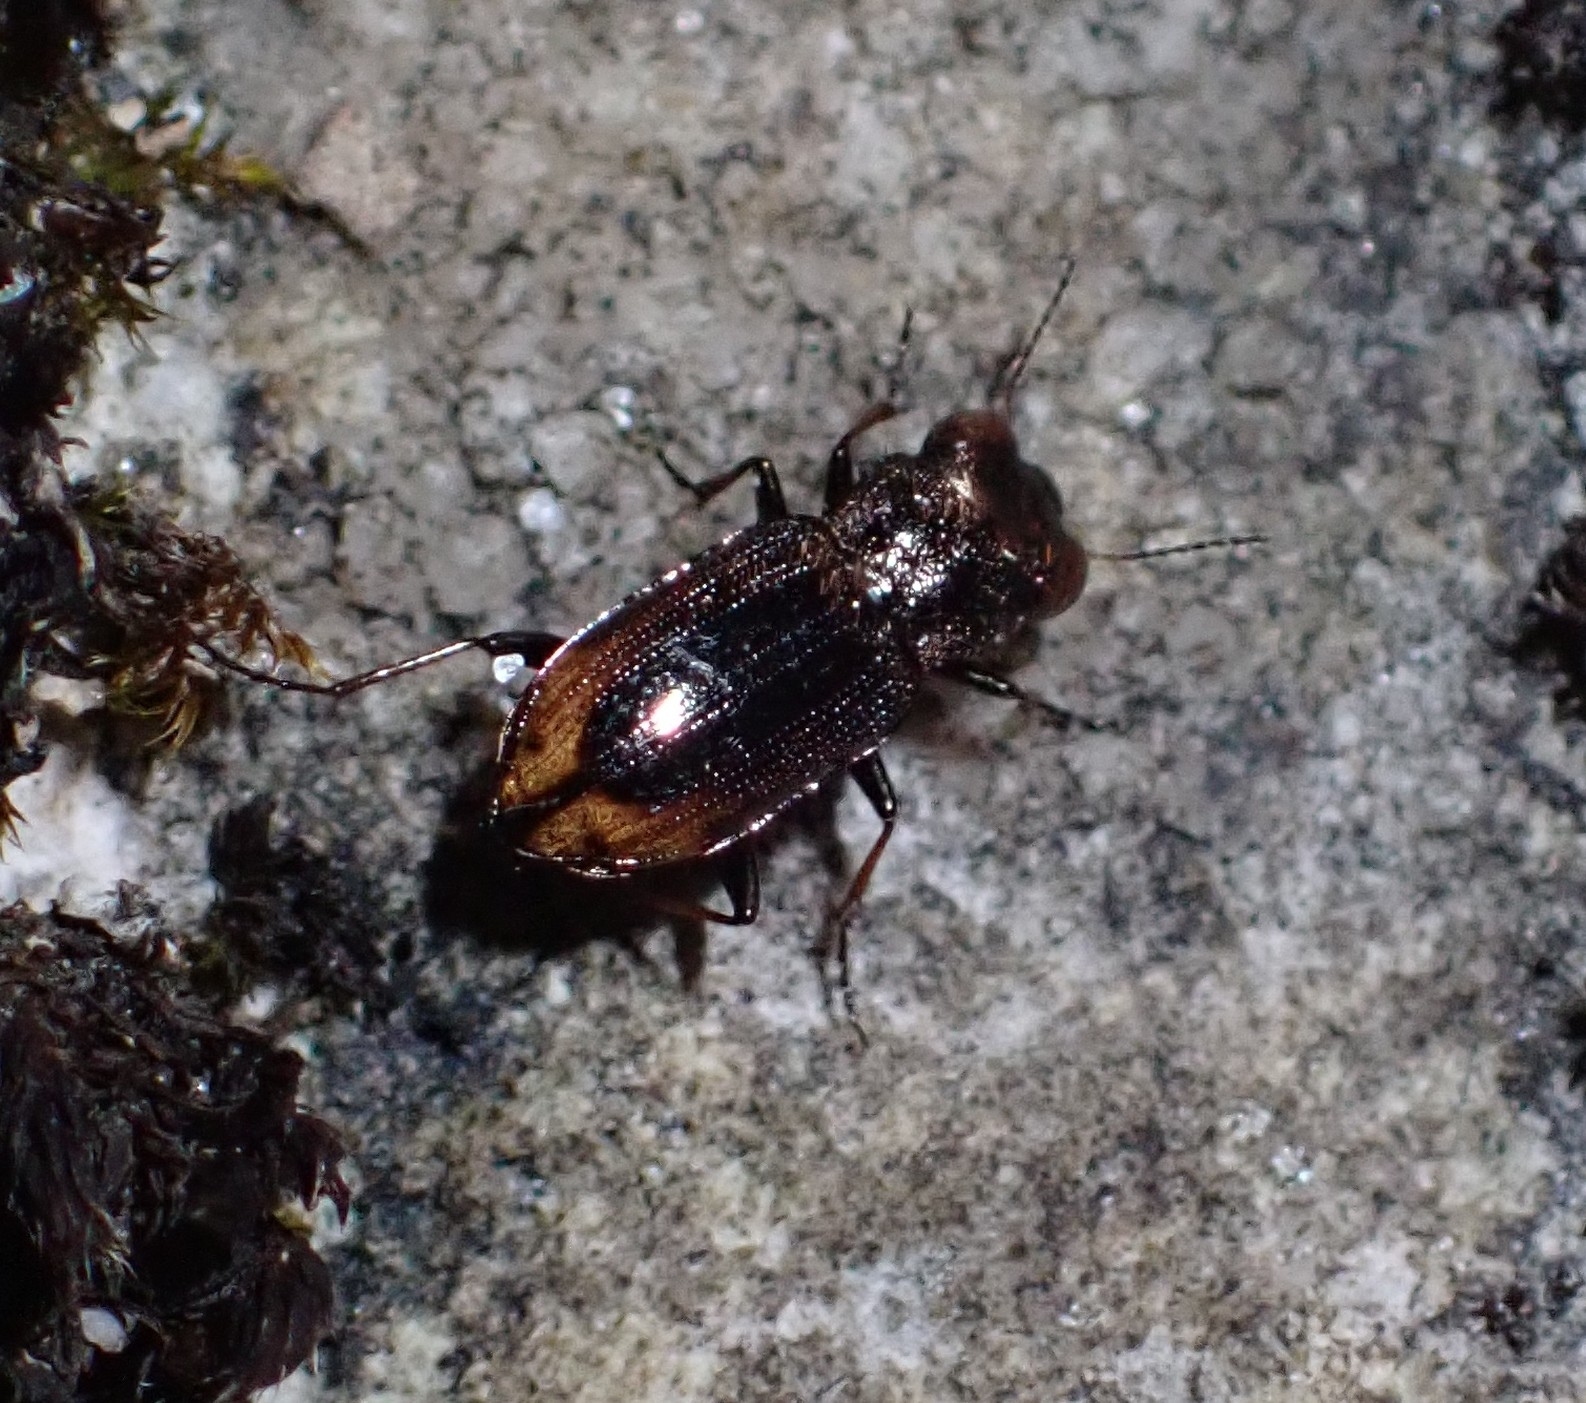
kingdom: Animalia
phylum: Arthropoda
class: Insecta
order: Coleoptera
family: Carabidae
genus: Notiophilus
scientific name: Notiophilus biguttatus
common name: Spotted gazelle beetle
